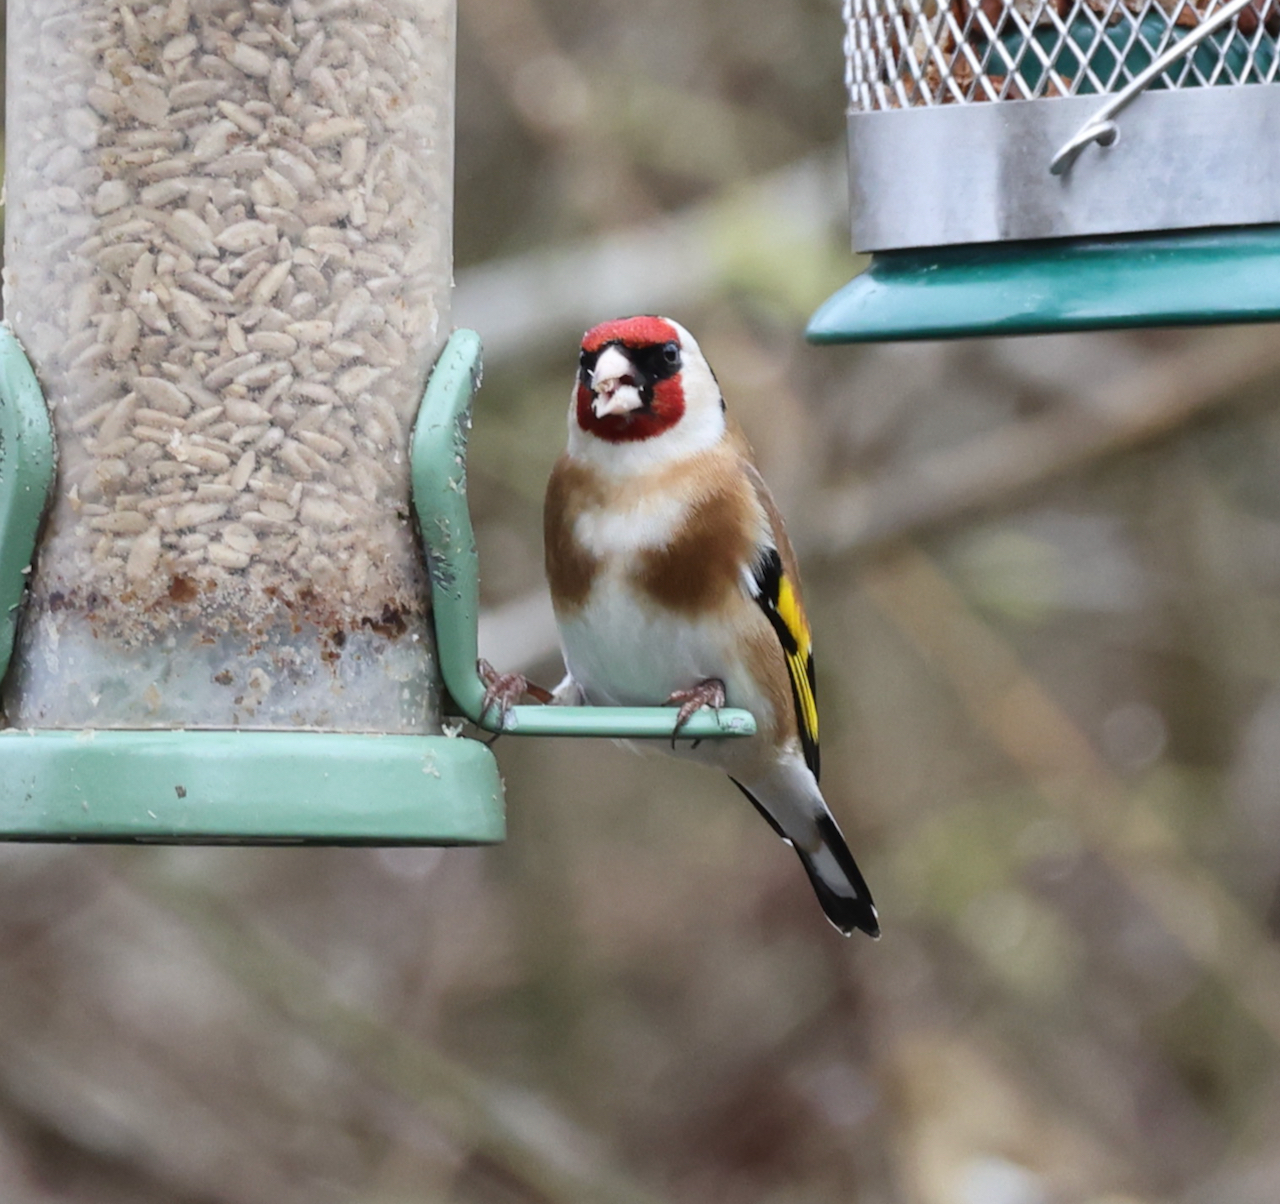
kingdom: Animalia
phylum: Chordata
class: Aves
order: Passeriformes
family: Fringillidae
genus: Carduelis
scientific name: Carduelis carduelis
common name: European goldfinch
